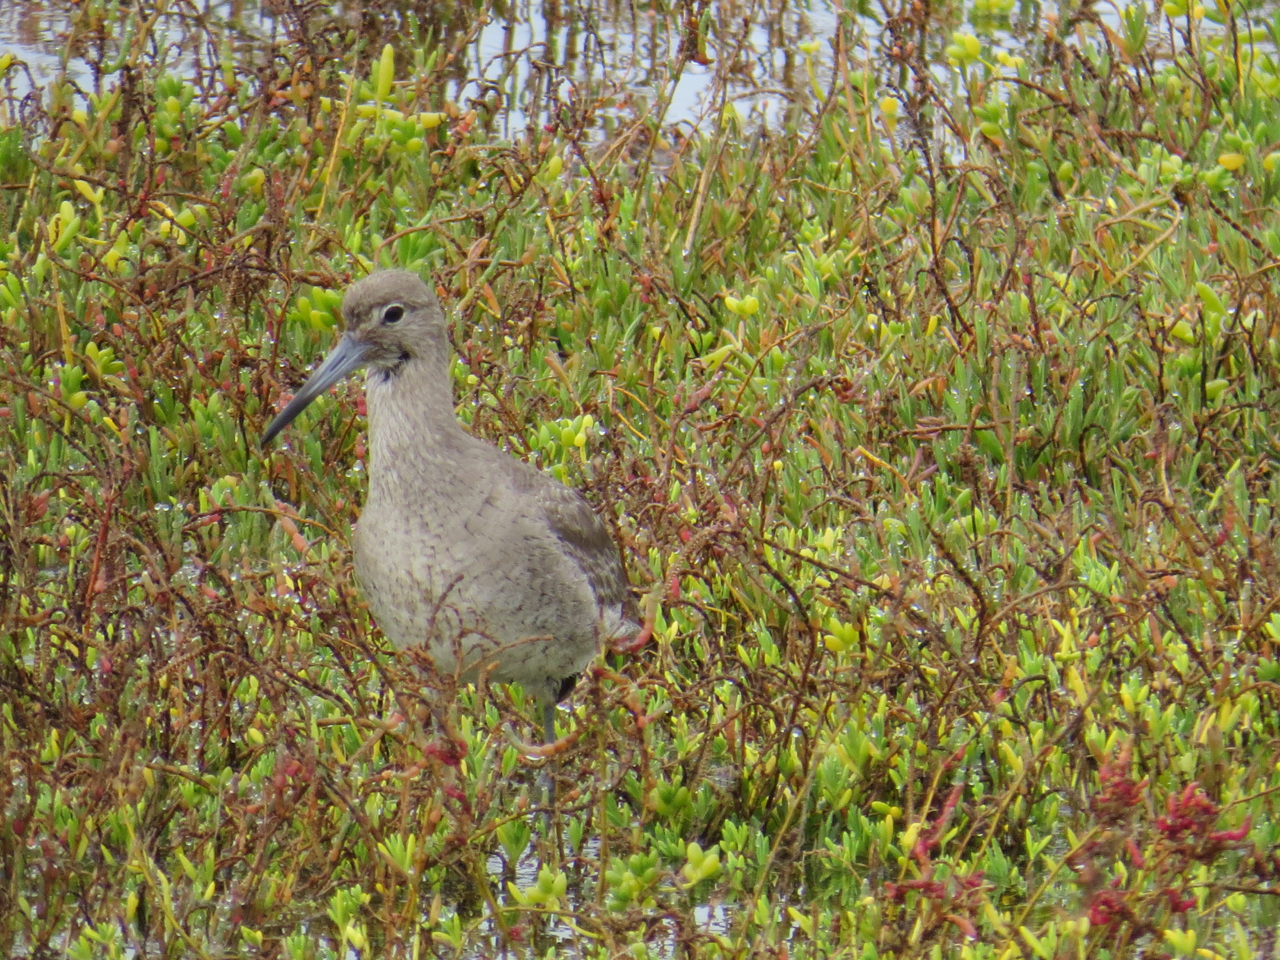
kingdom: Animalia
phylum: Chordata
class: Aves
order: Charadriiformes
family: Scolopacidae
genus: Tringa
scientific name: Tringa semipalmata
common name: Willet
